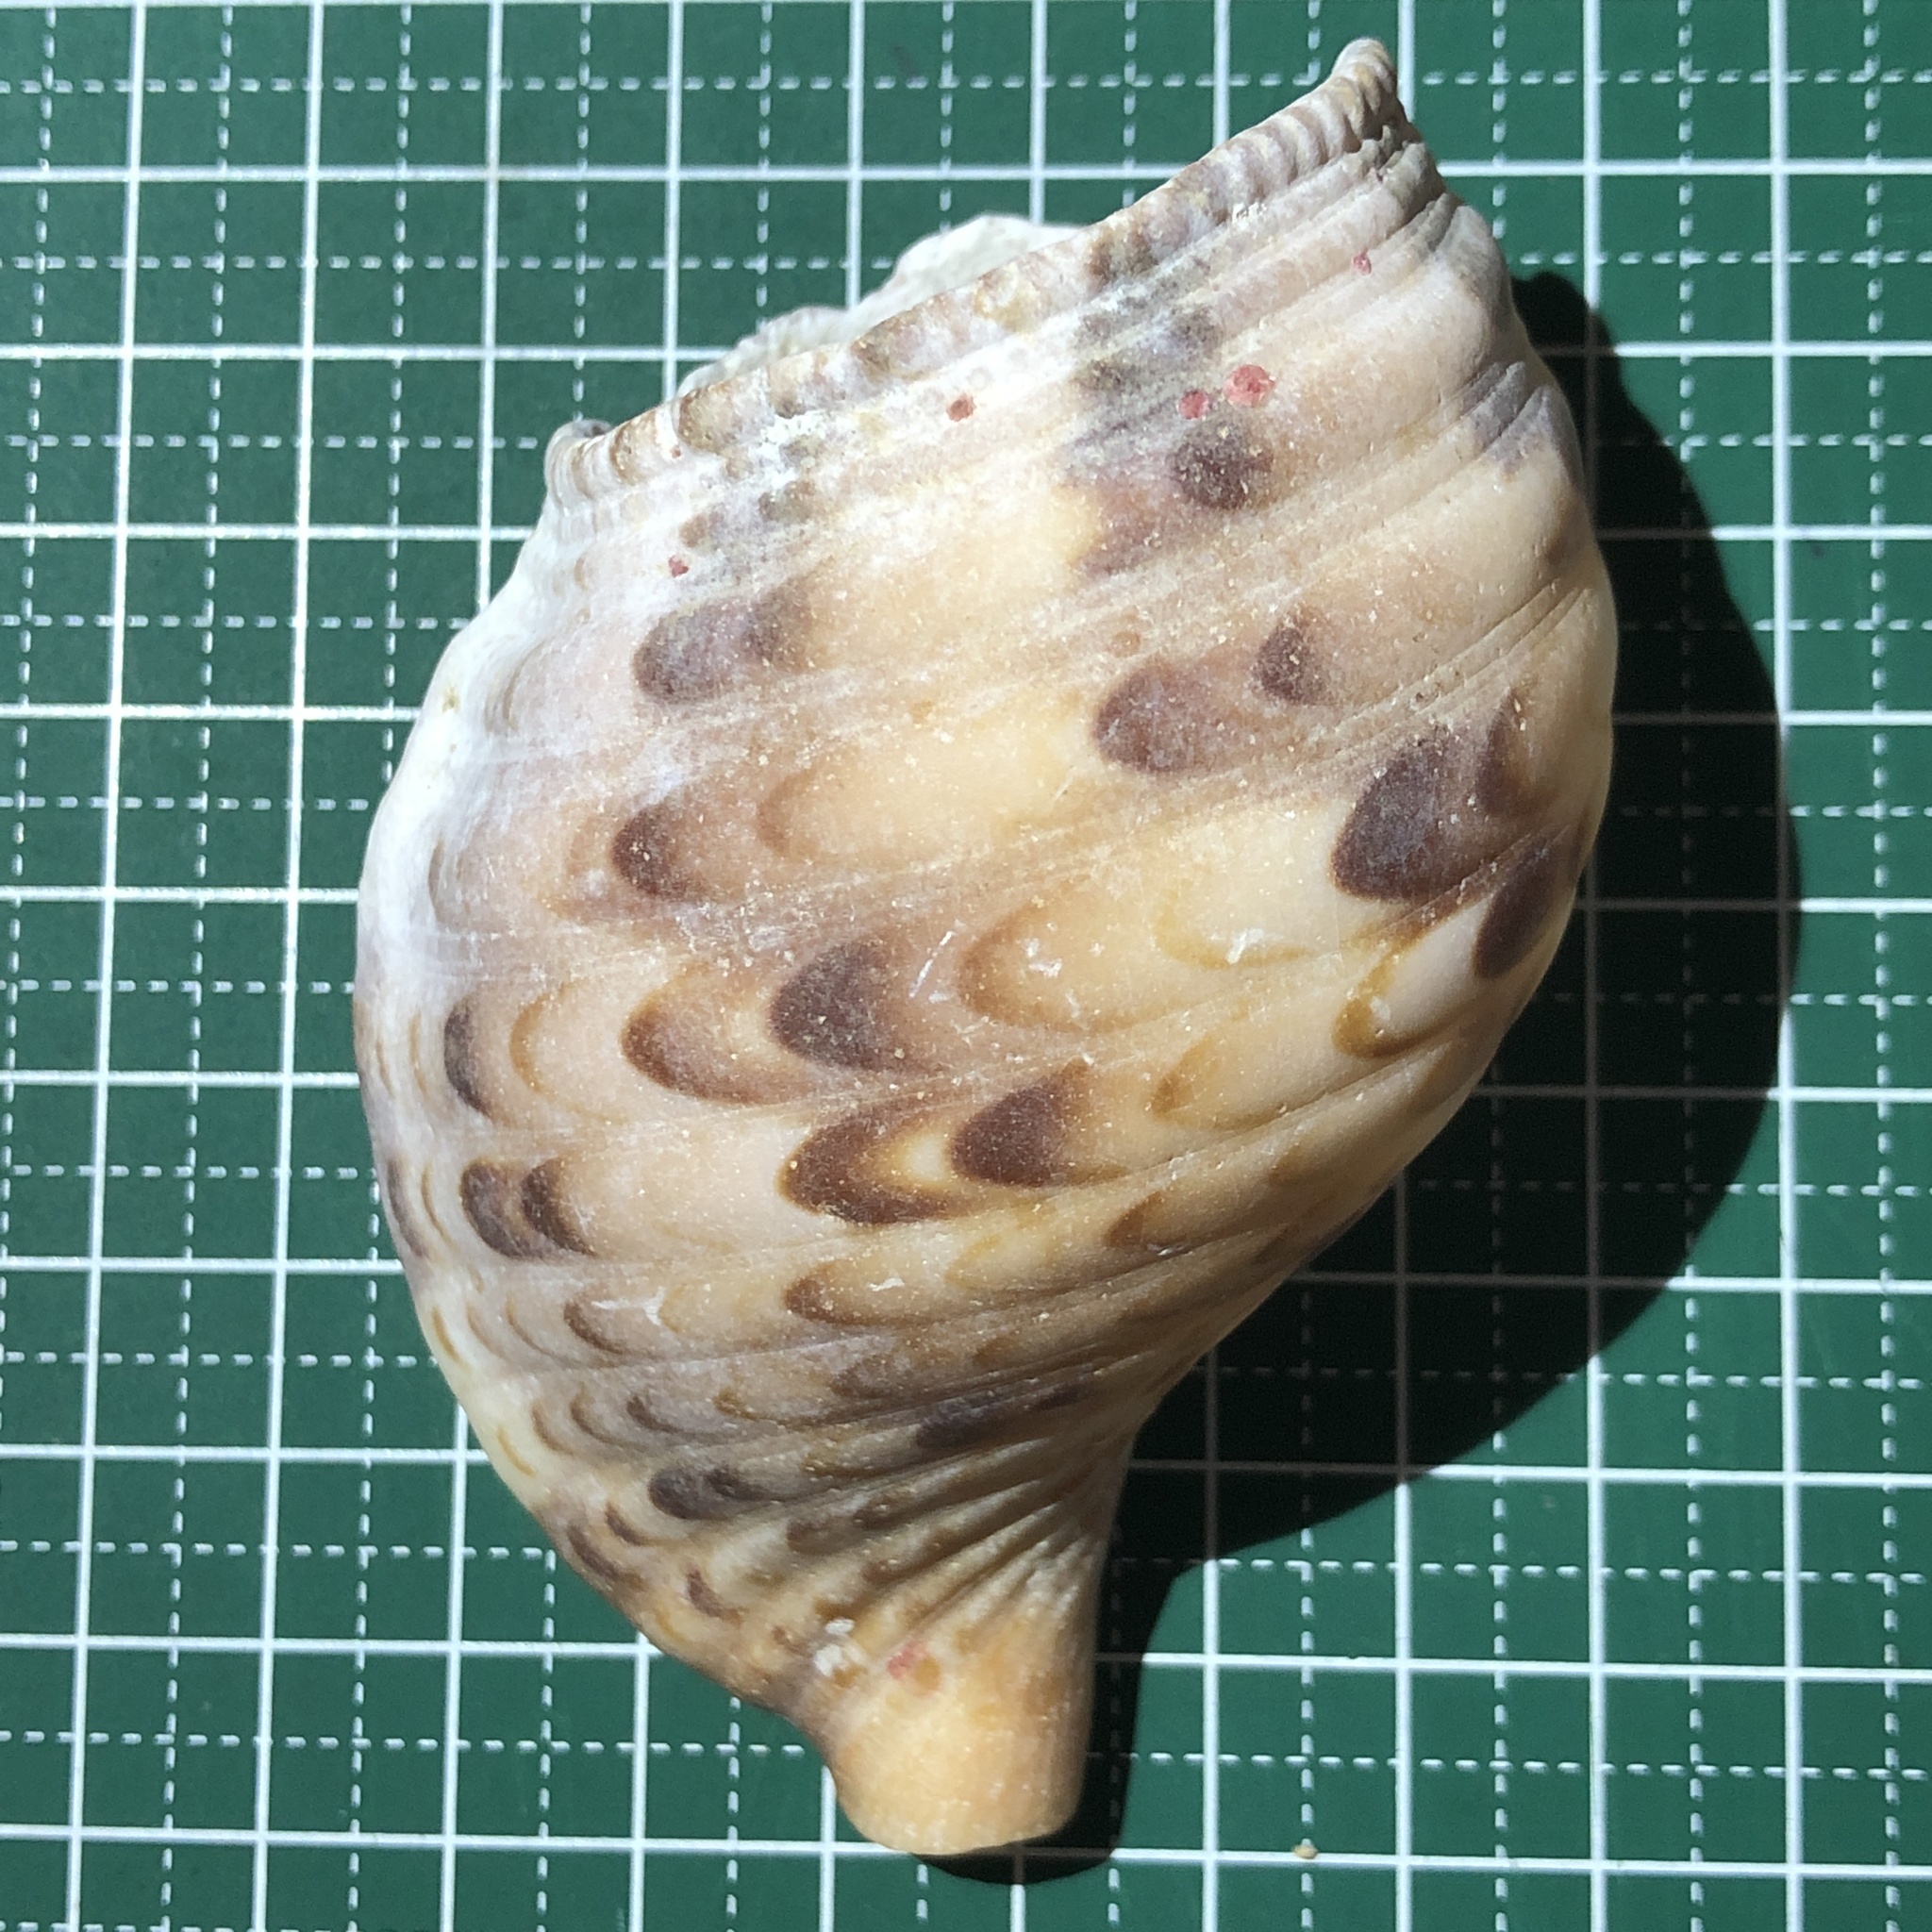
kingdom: Animalia
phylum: Mollusca
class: Gastropoda
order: Littorinimorpha
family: Charoniidae
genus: Charonia
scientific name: Charonia tritonis
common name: Pacific triton
